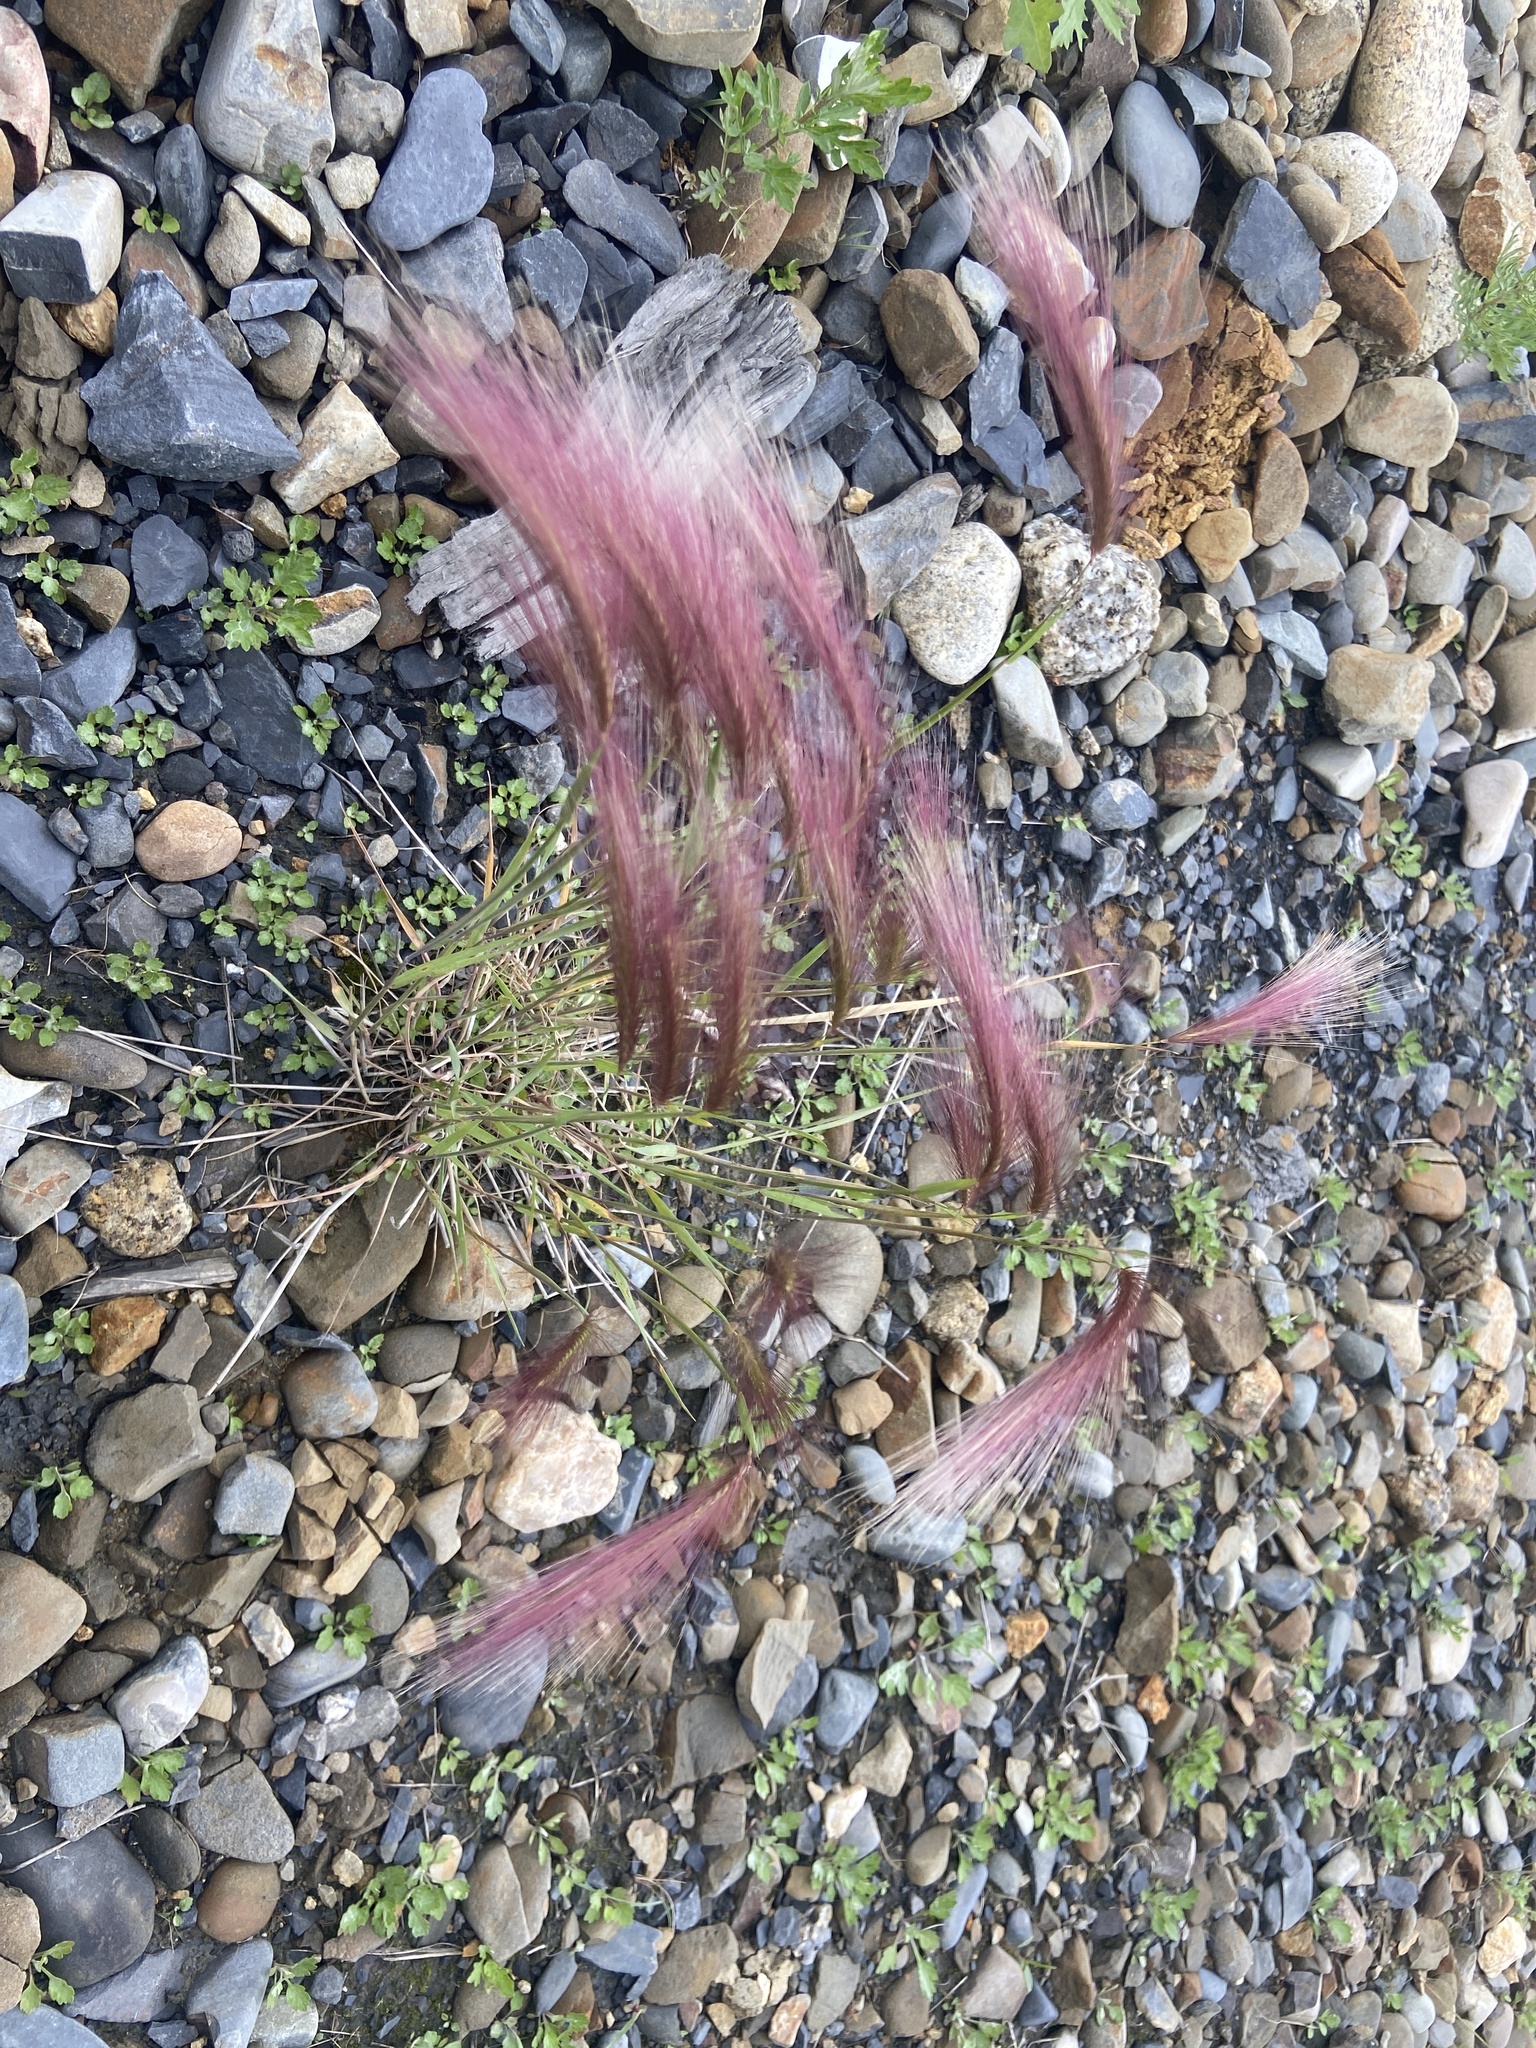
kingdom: Plantae
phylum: Tracheophyta
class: Liliopsida
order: Poales
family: Poaceae
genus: Hordeum
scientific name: Hordeum jubatum
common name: Foxtail barley
